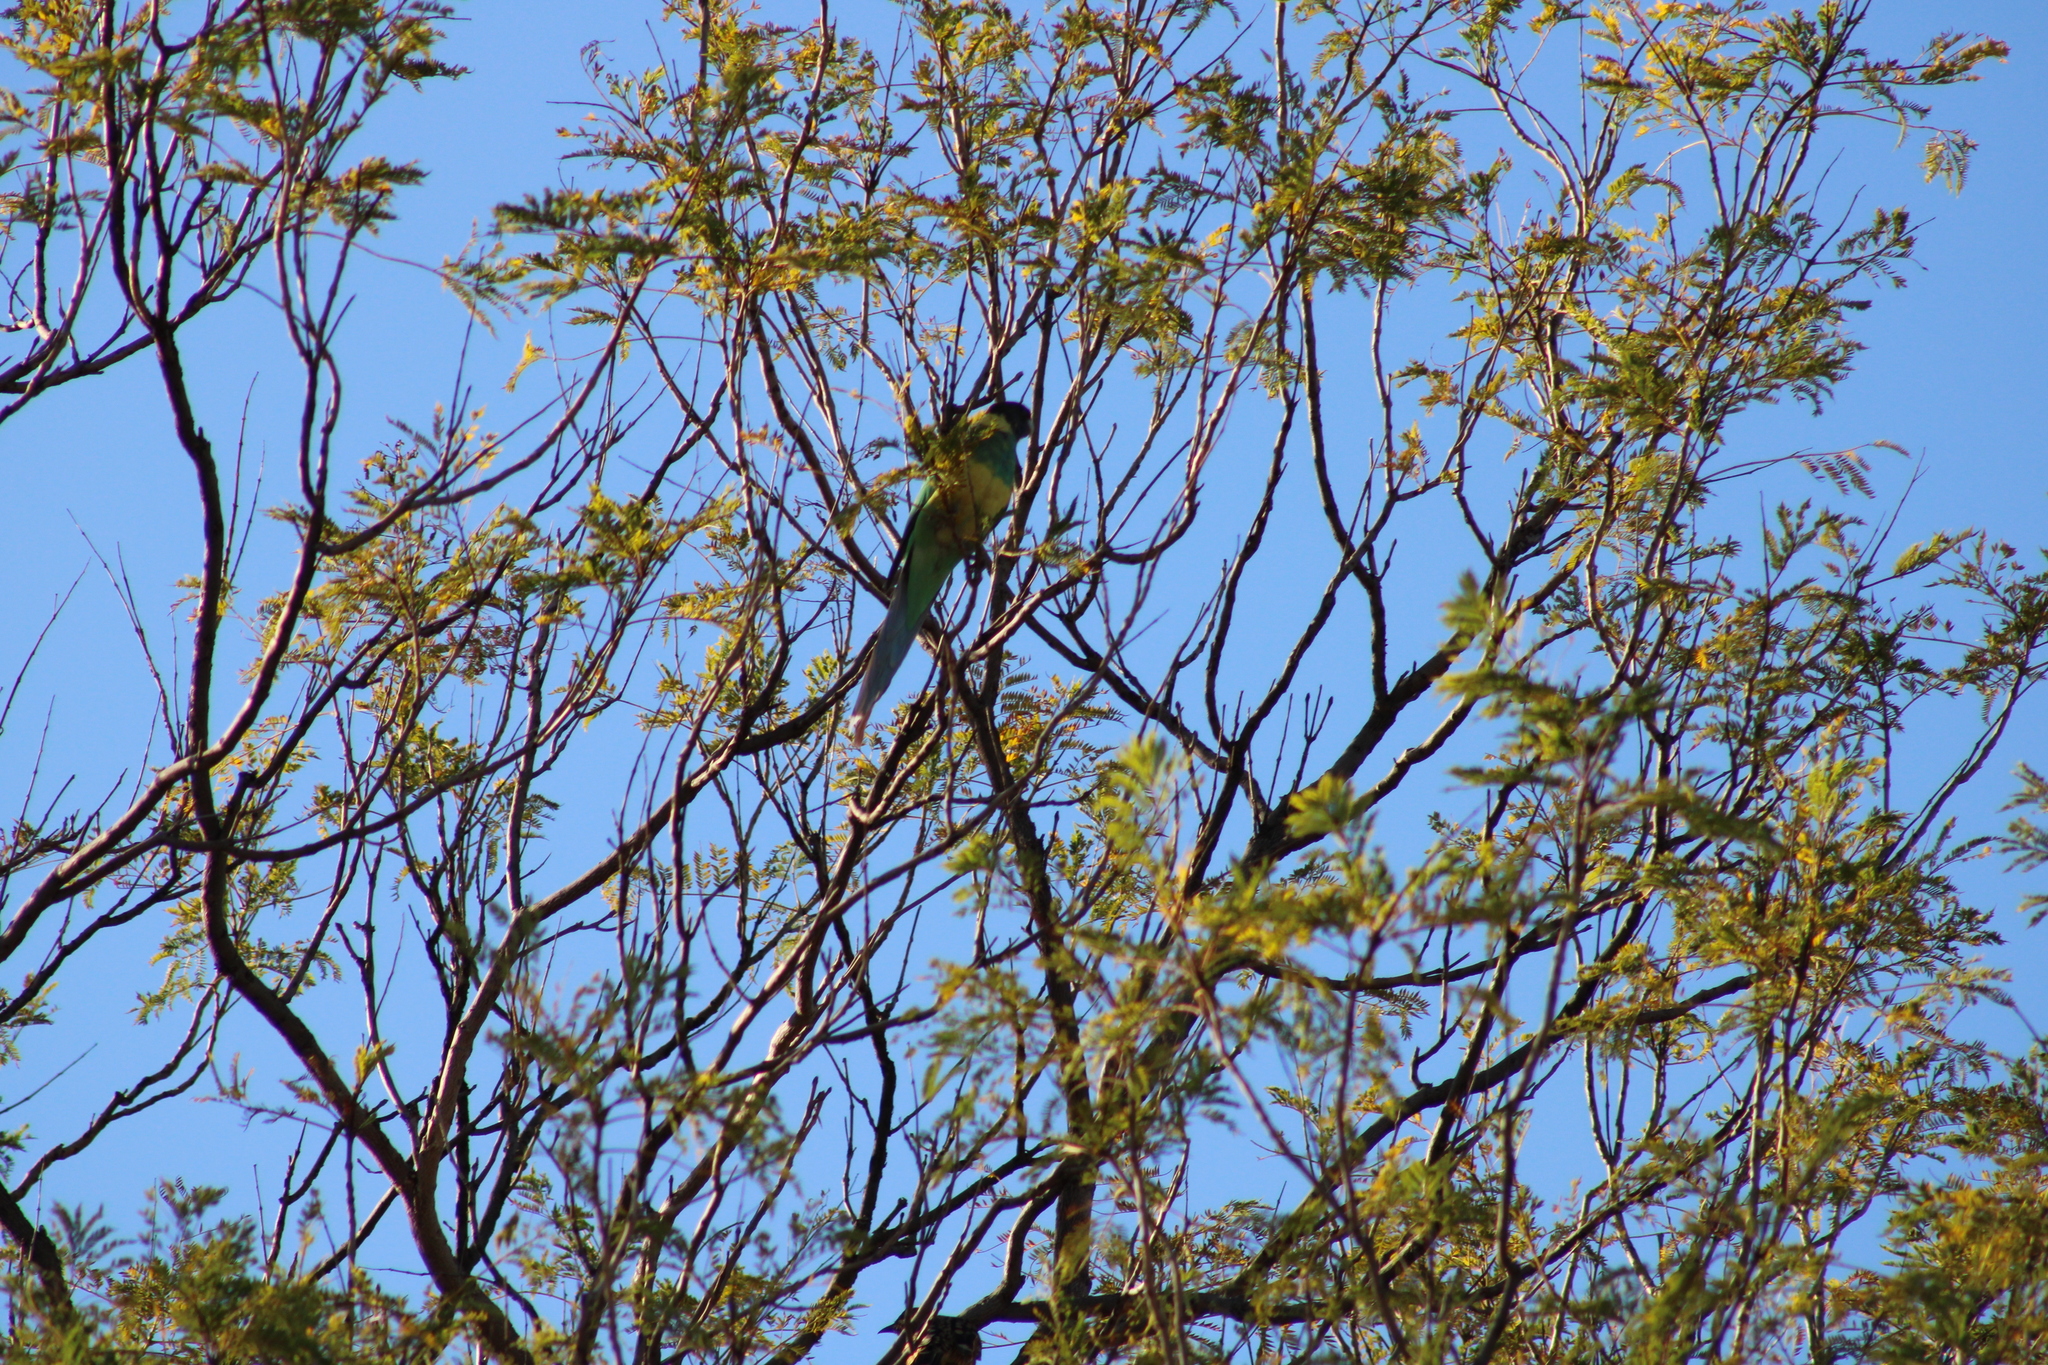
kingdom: Animalia
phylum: Chordata
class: Aves
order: Psittaciformes
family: Psittacidae
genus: Barnardius
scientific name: Barnardius zonarius
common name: Australian ringneck
